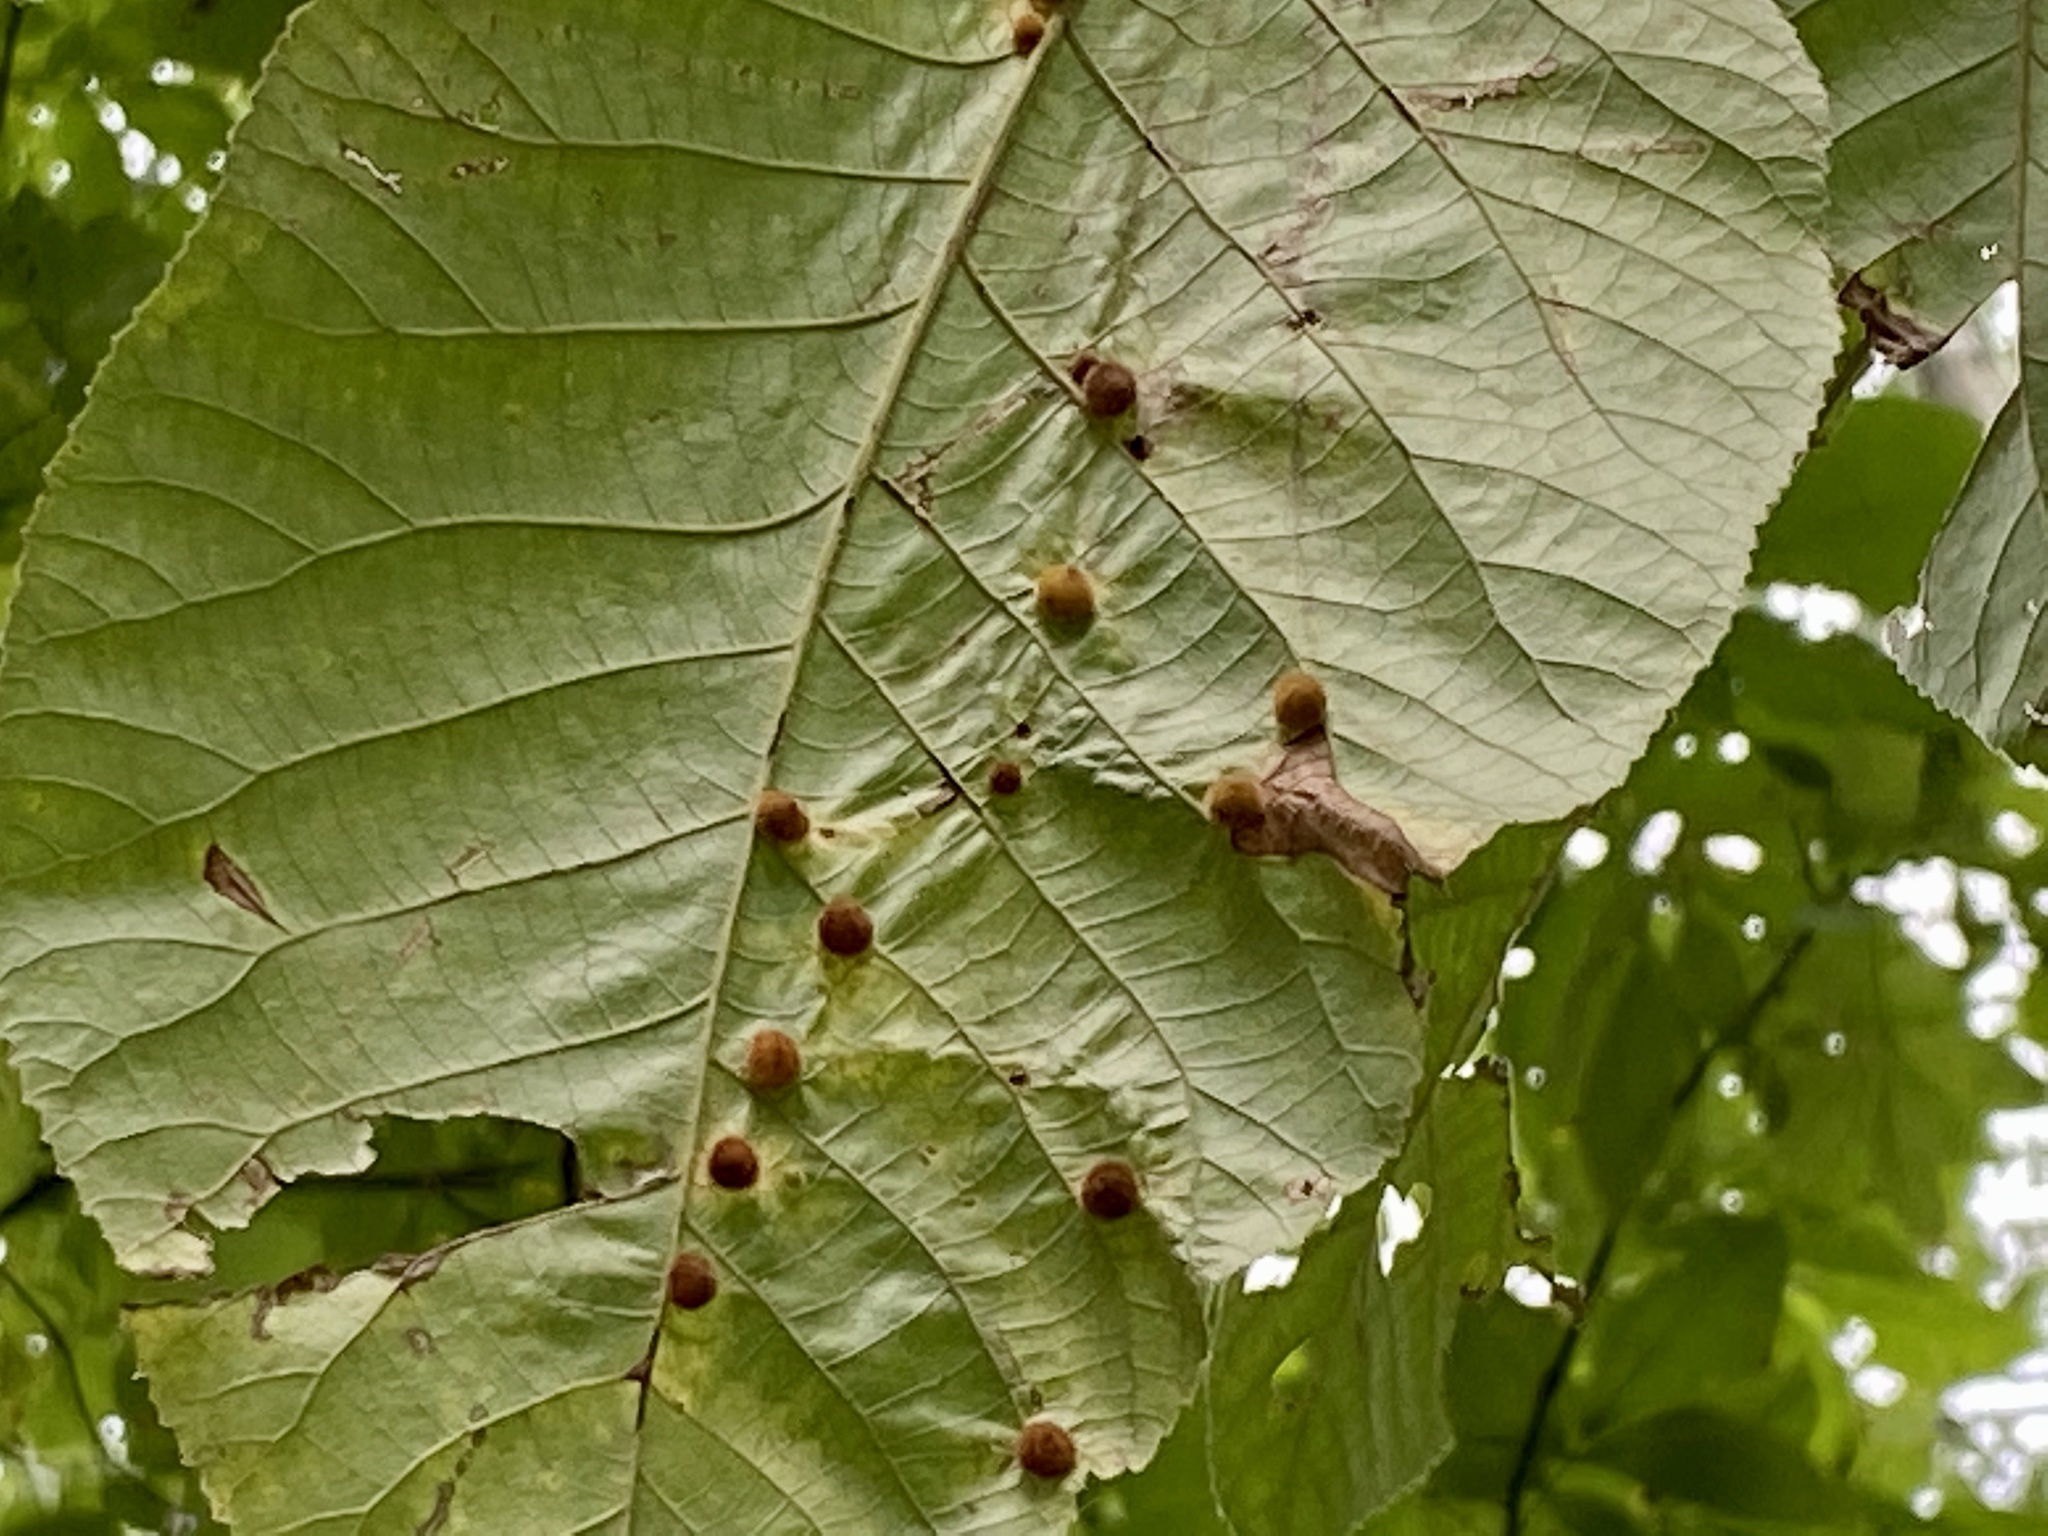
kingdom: Animalia
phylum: Arthropoda
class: Insecta
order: Diptera
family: Cecidomyiidae
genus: Caryomyia
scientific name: Caryomyia conoidea
